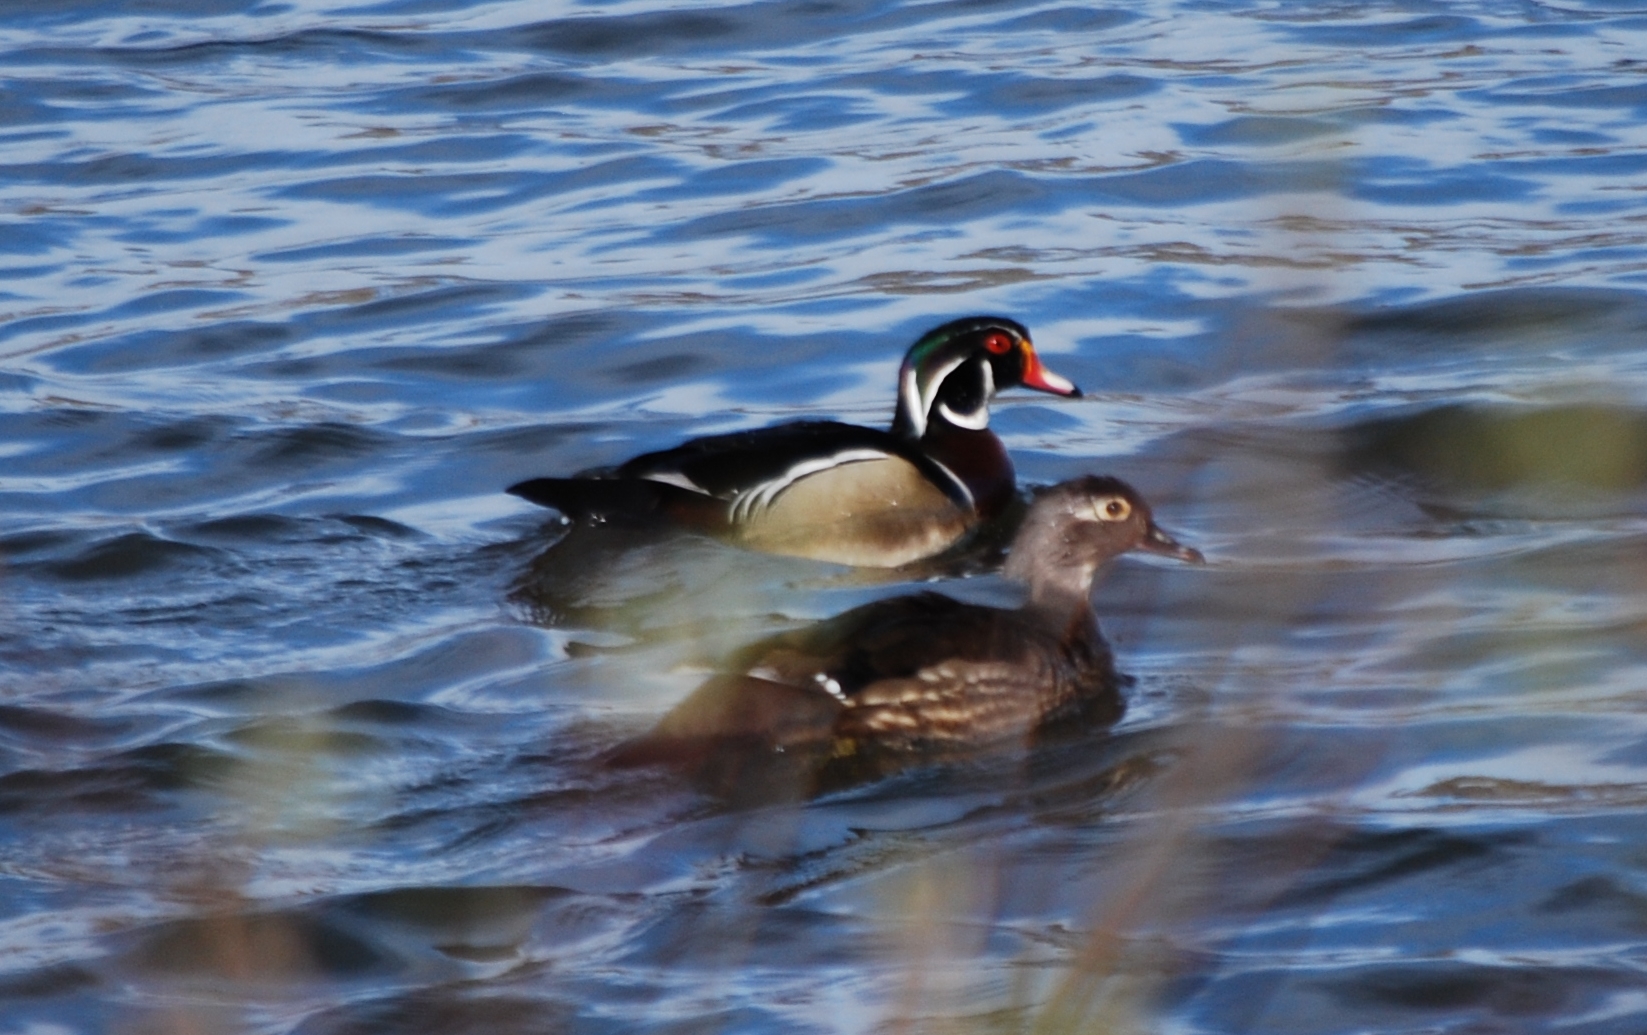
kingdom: Animalia
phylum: Chordata
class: Aves
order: Anseriformes
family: Anatidae
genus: Aix
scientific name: Aix sponsa
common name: Wood duck
